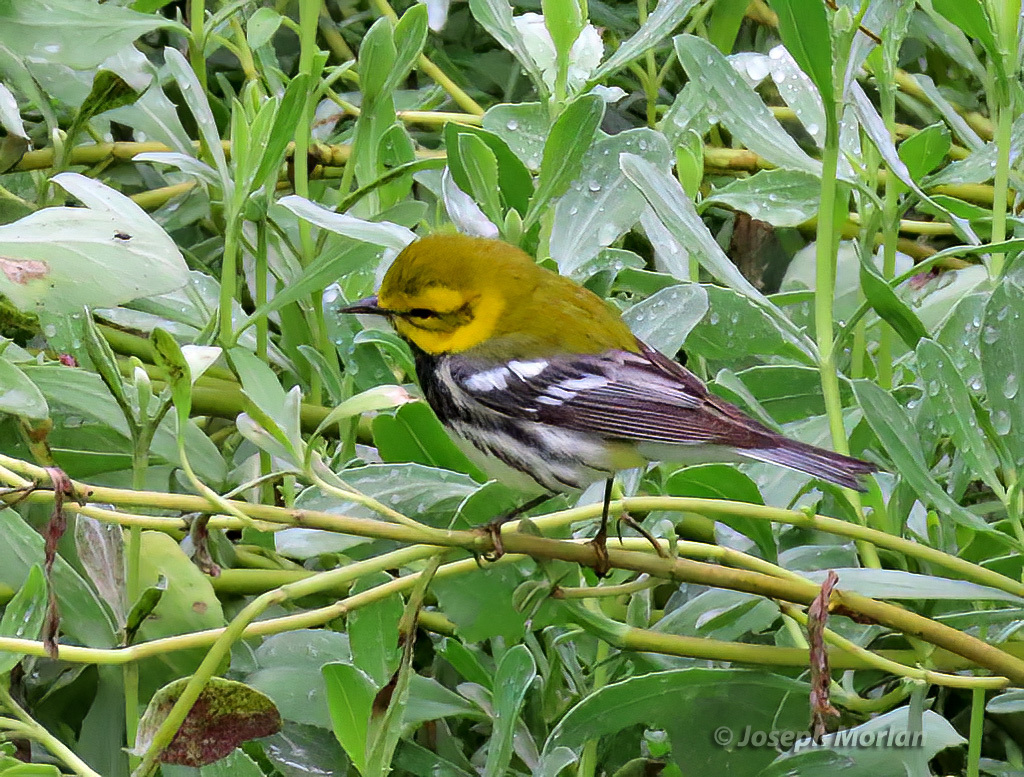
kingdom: Animalia
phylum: Chordata
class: Aves
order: Passeriformes
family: Parulidae
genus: Setophaga
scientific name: Setophaga virens
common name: Black-throated green warbler
